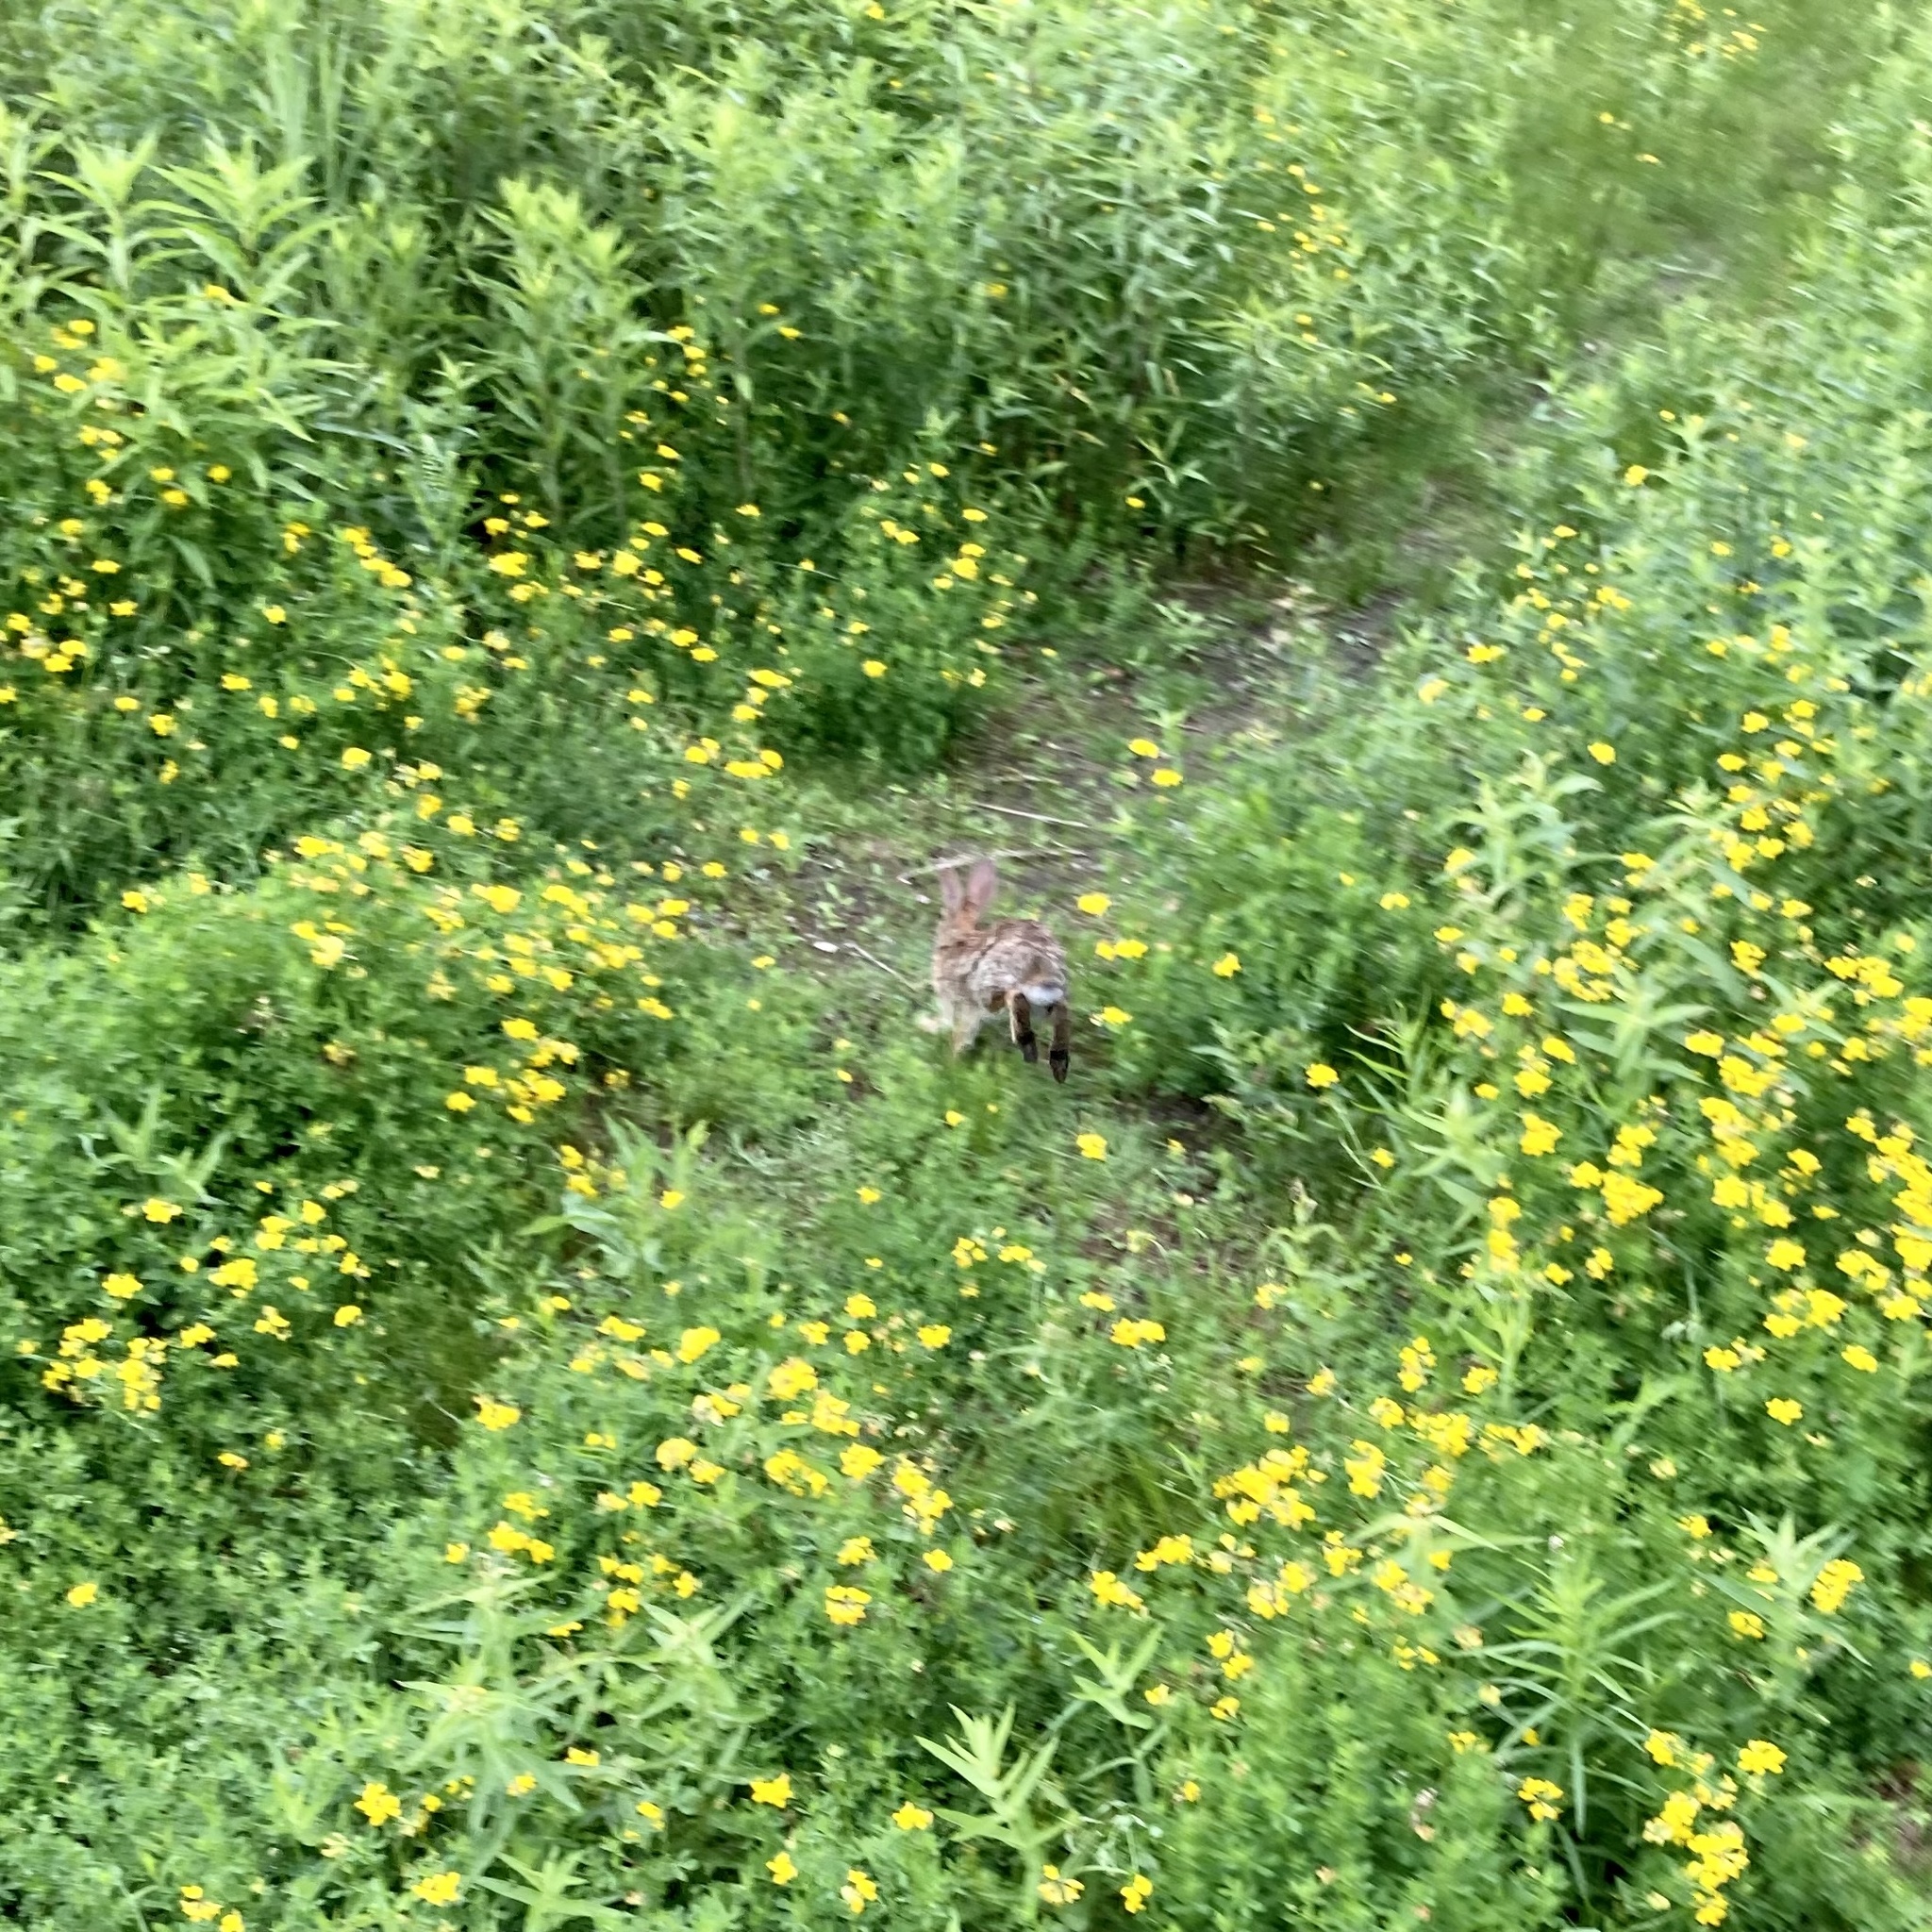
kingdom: Animalia
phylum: Chordata
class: Mammalia
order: Lagomorpha
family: Leporidae
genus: Sylvilagus
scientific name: Sylvilagus floridanus
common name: Eastern cottontail
